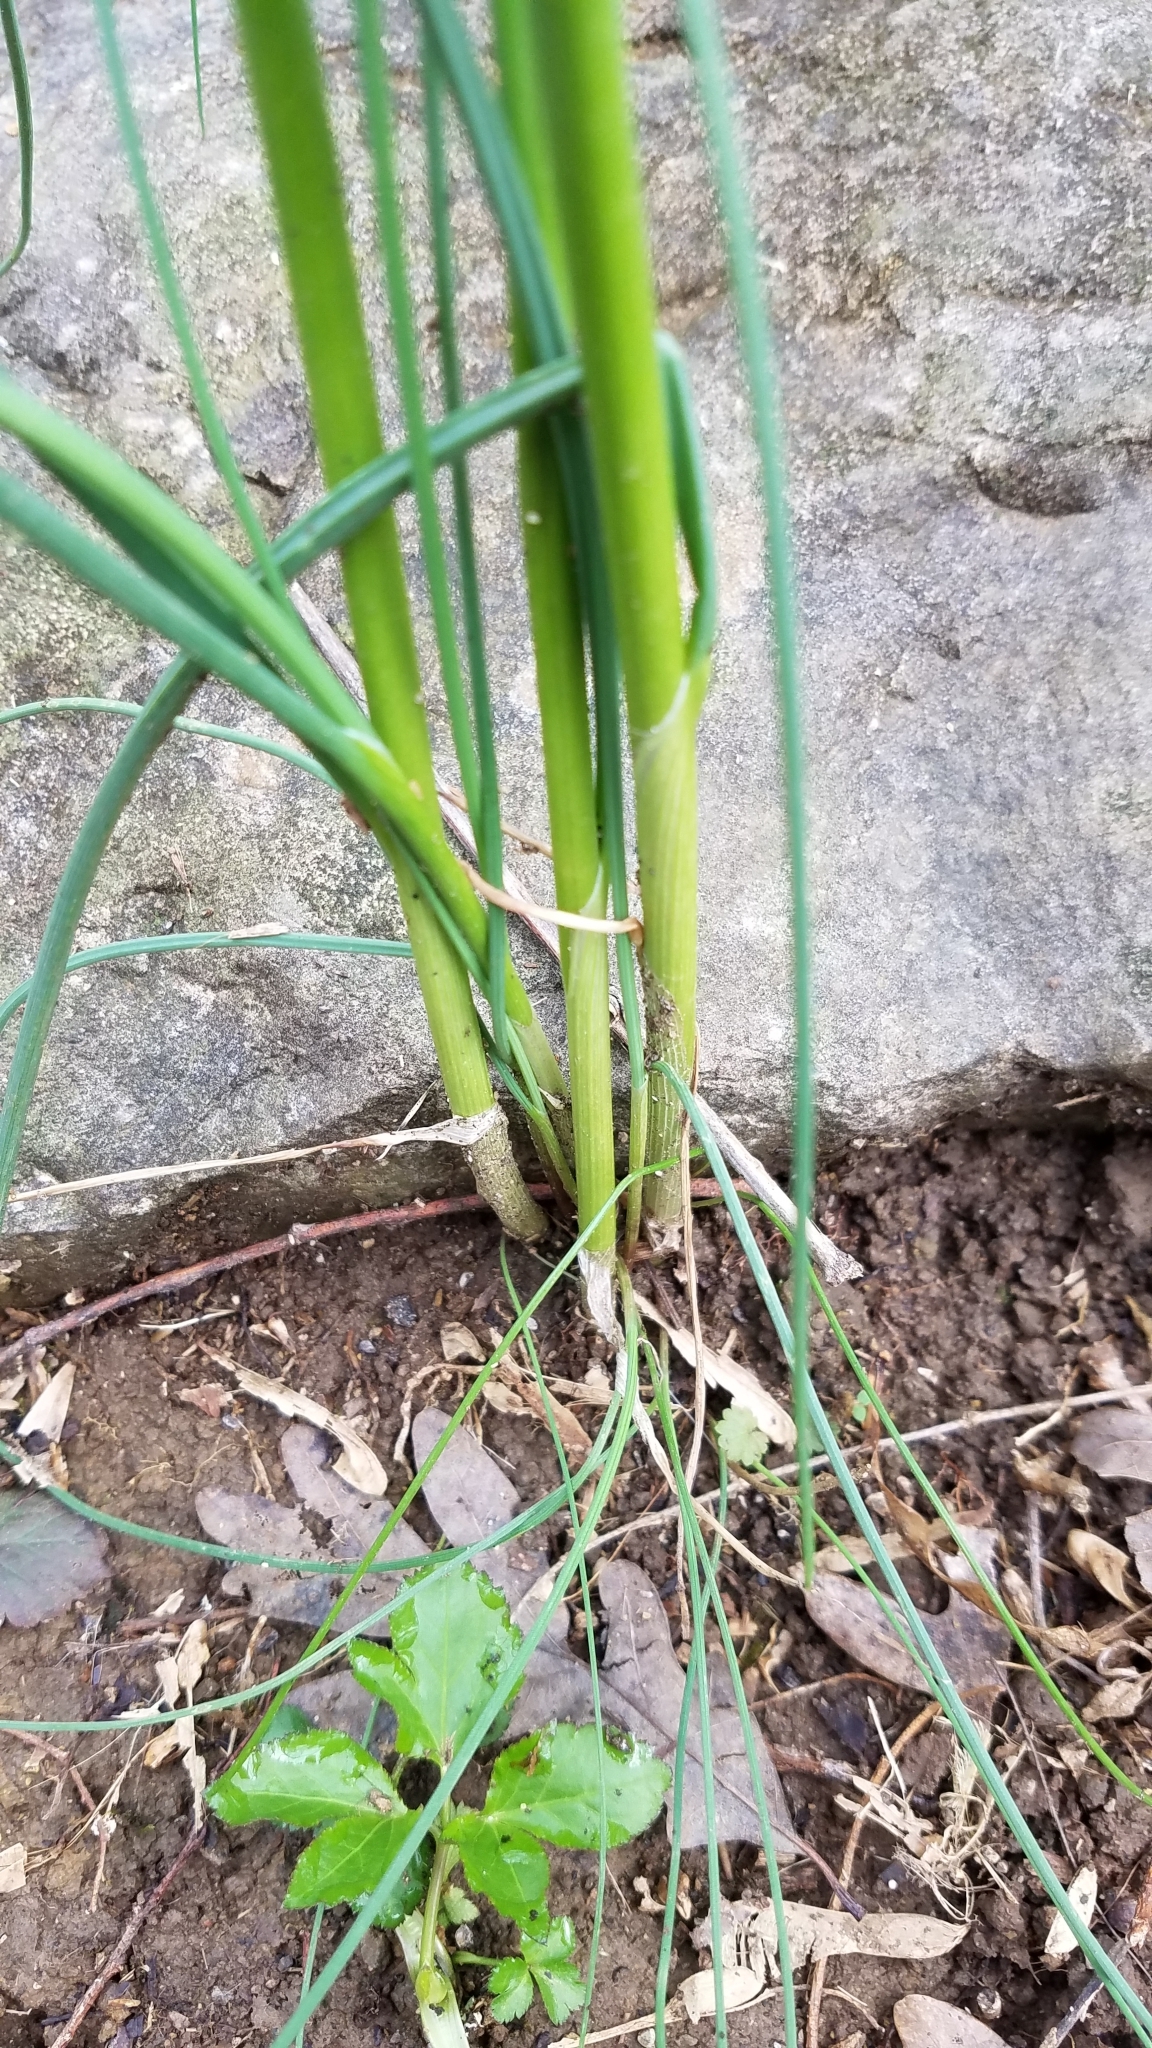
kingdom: Plantae
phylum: Tracheophyta
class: Liliopsida
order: Asparagales
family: Amaryllidaceae
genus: Allium
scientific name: Allium vineale
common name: Crow garlic
